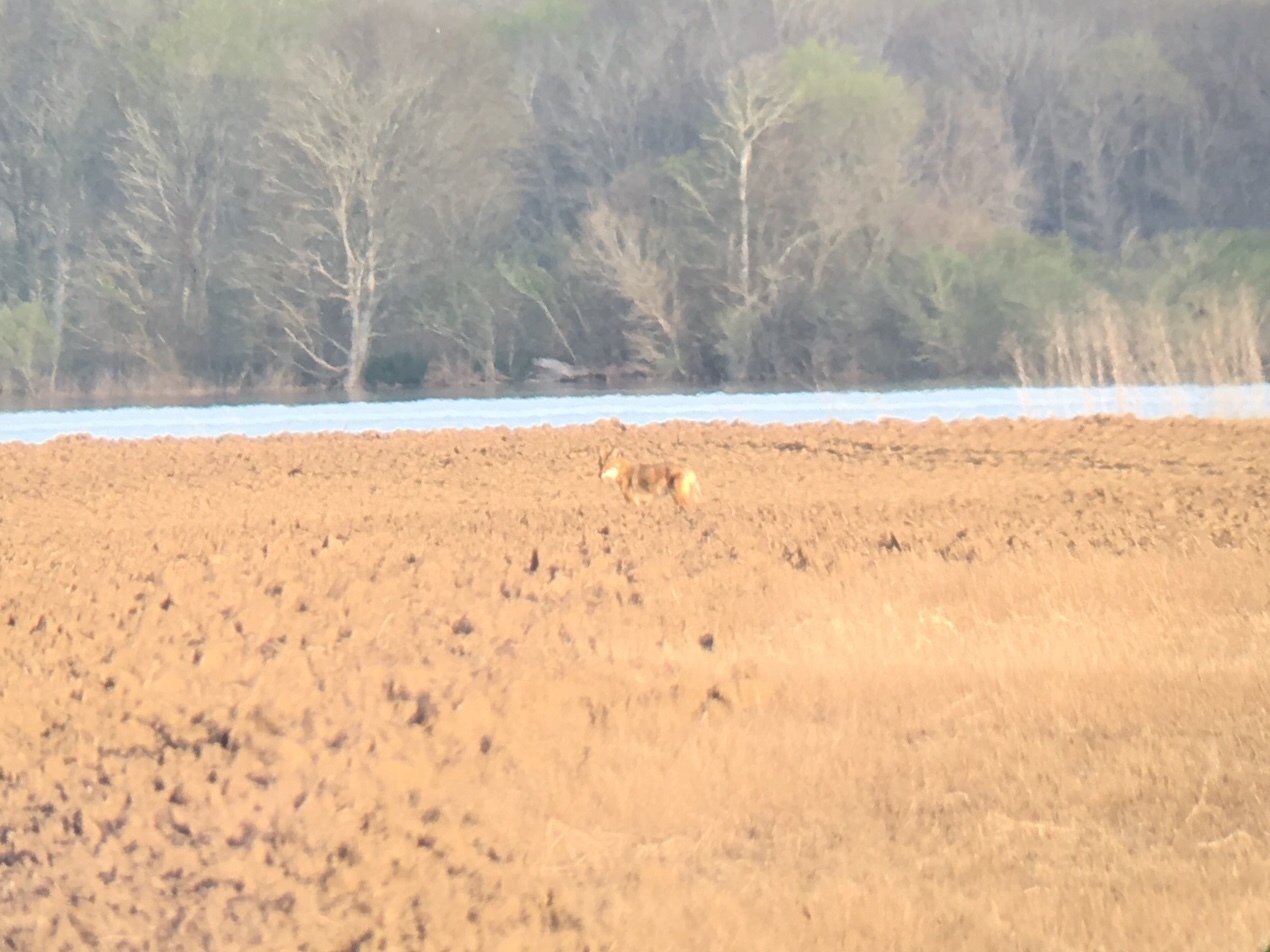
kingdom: Animalia
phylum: Chordata
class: Mammalia
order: Carnivora
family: Canidae
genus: Canis
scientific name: Canis latrans
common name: Coyote
